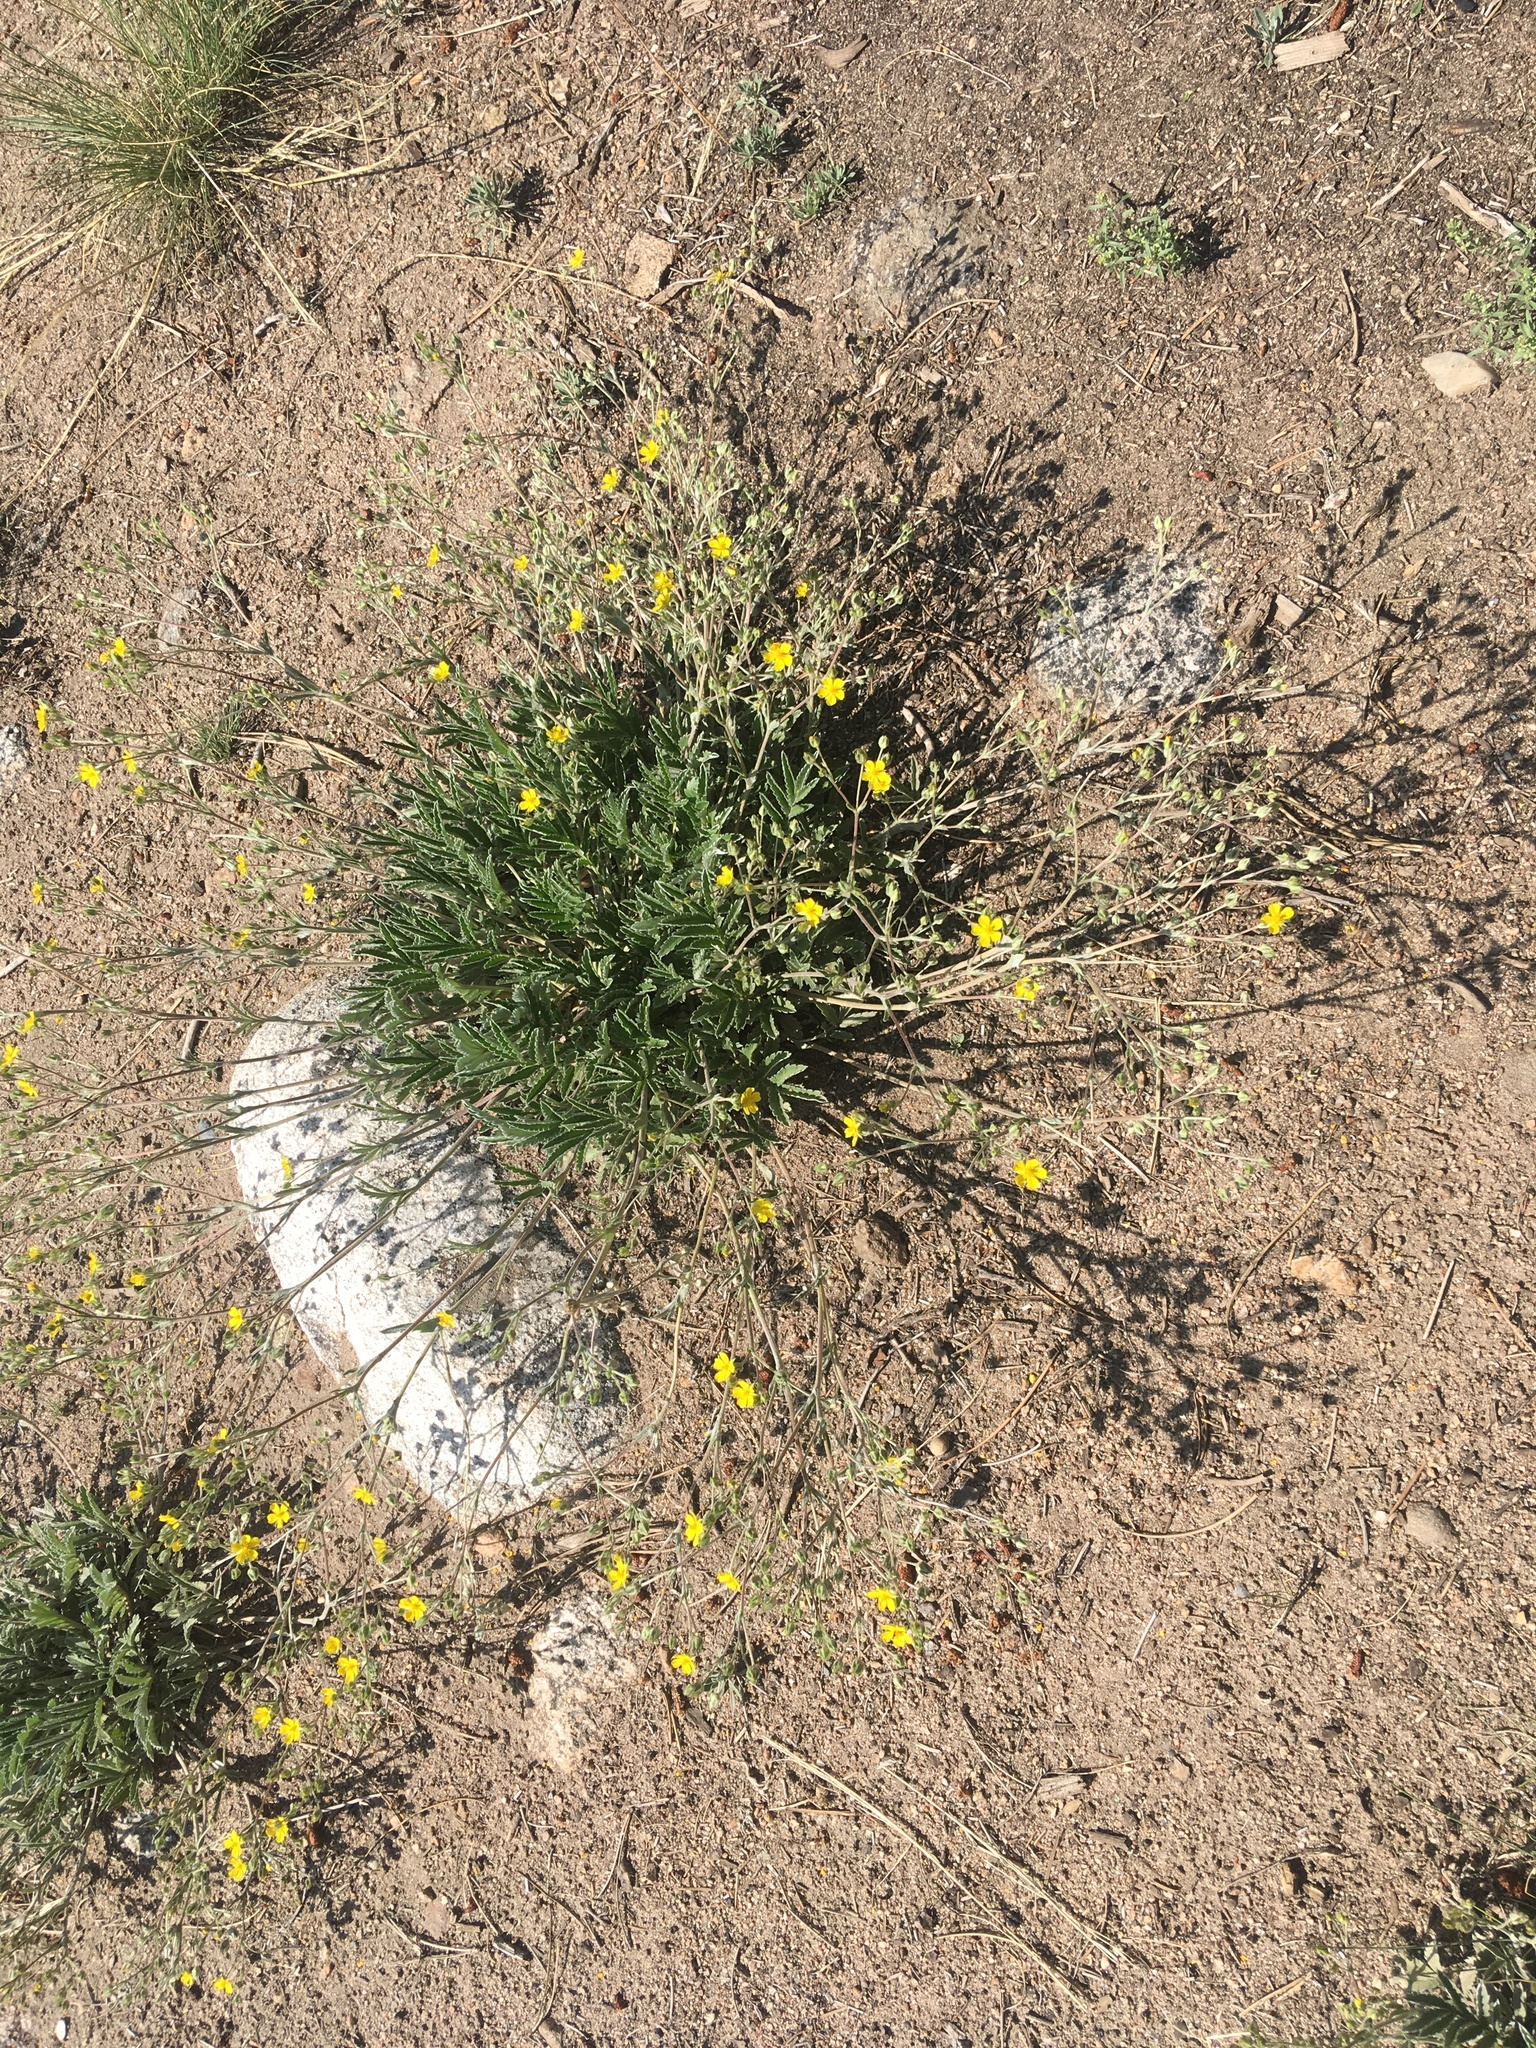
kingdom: Plantae
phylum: Tracheophyta
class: Magnoliopsida
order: Rosales
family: Rosaceae
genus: Potentilla
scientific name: Potentilla hippiana
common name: Woolly cinquefoil
